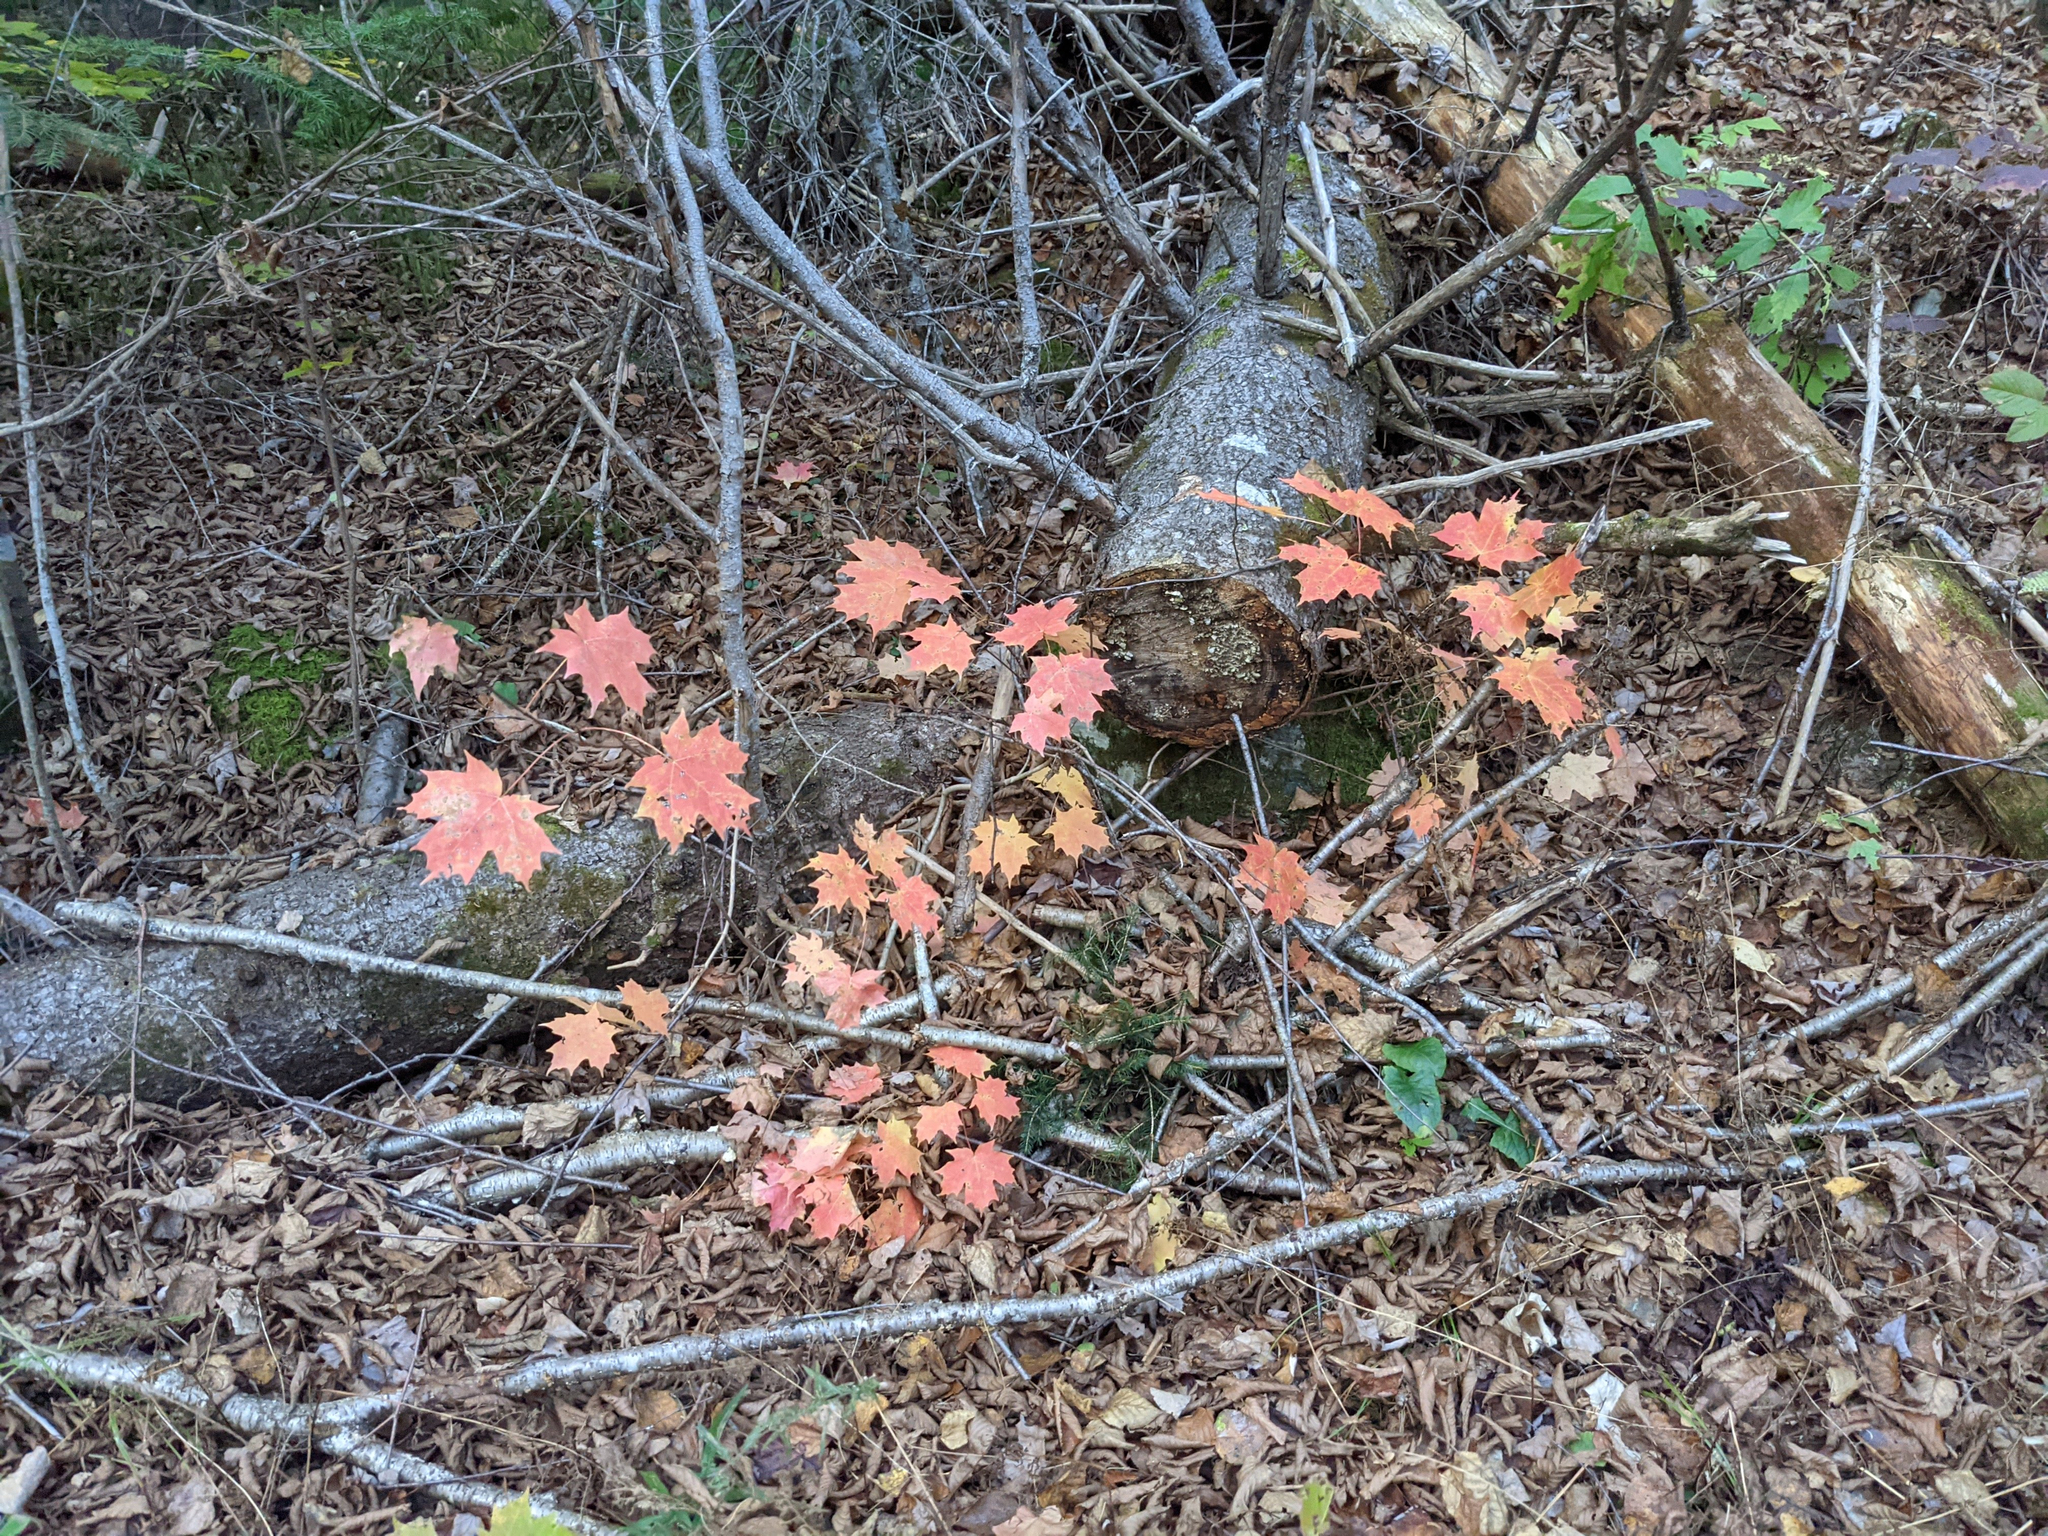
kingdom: Plantae
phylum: Tracheophyta
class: Magnoliopsida
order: Sapindales
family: Sapindaceae
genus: Acer
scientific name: Acer saccharum
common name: Sugar maple
